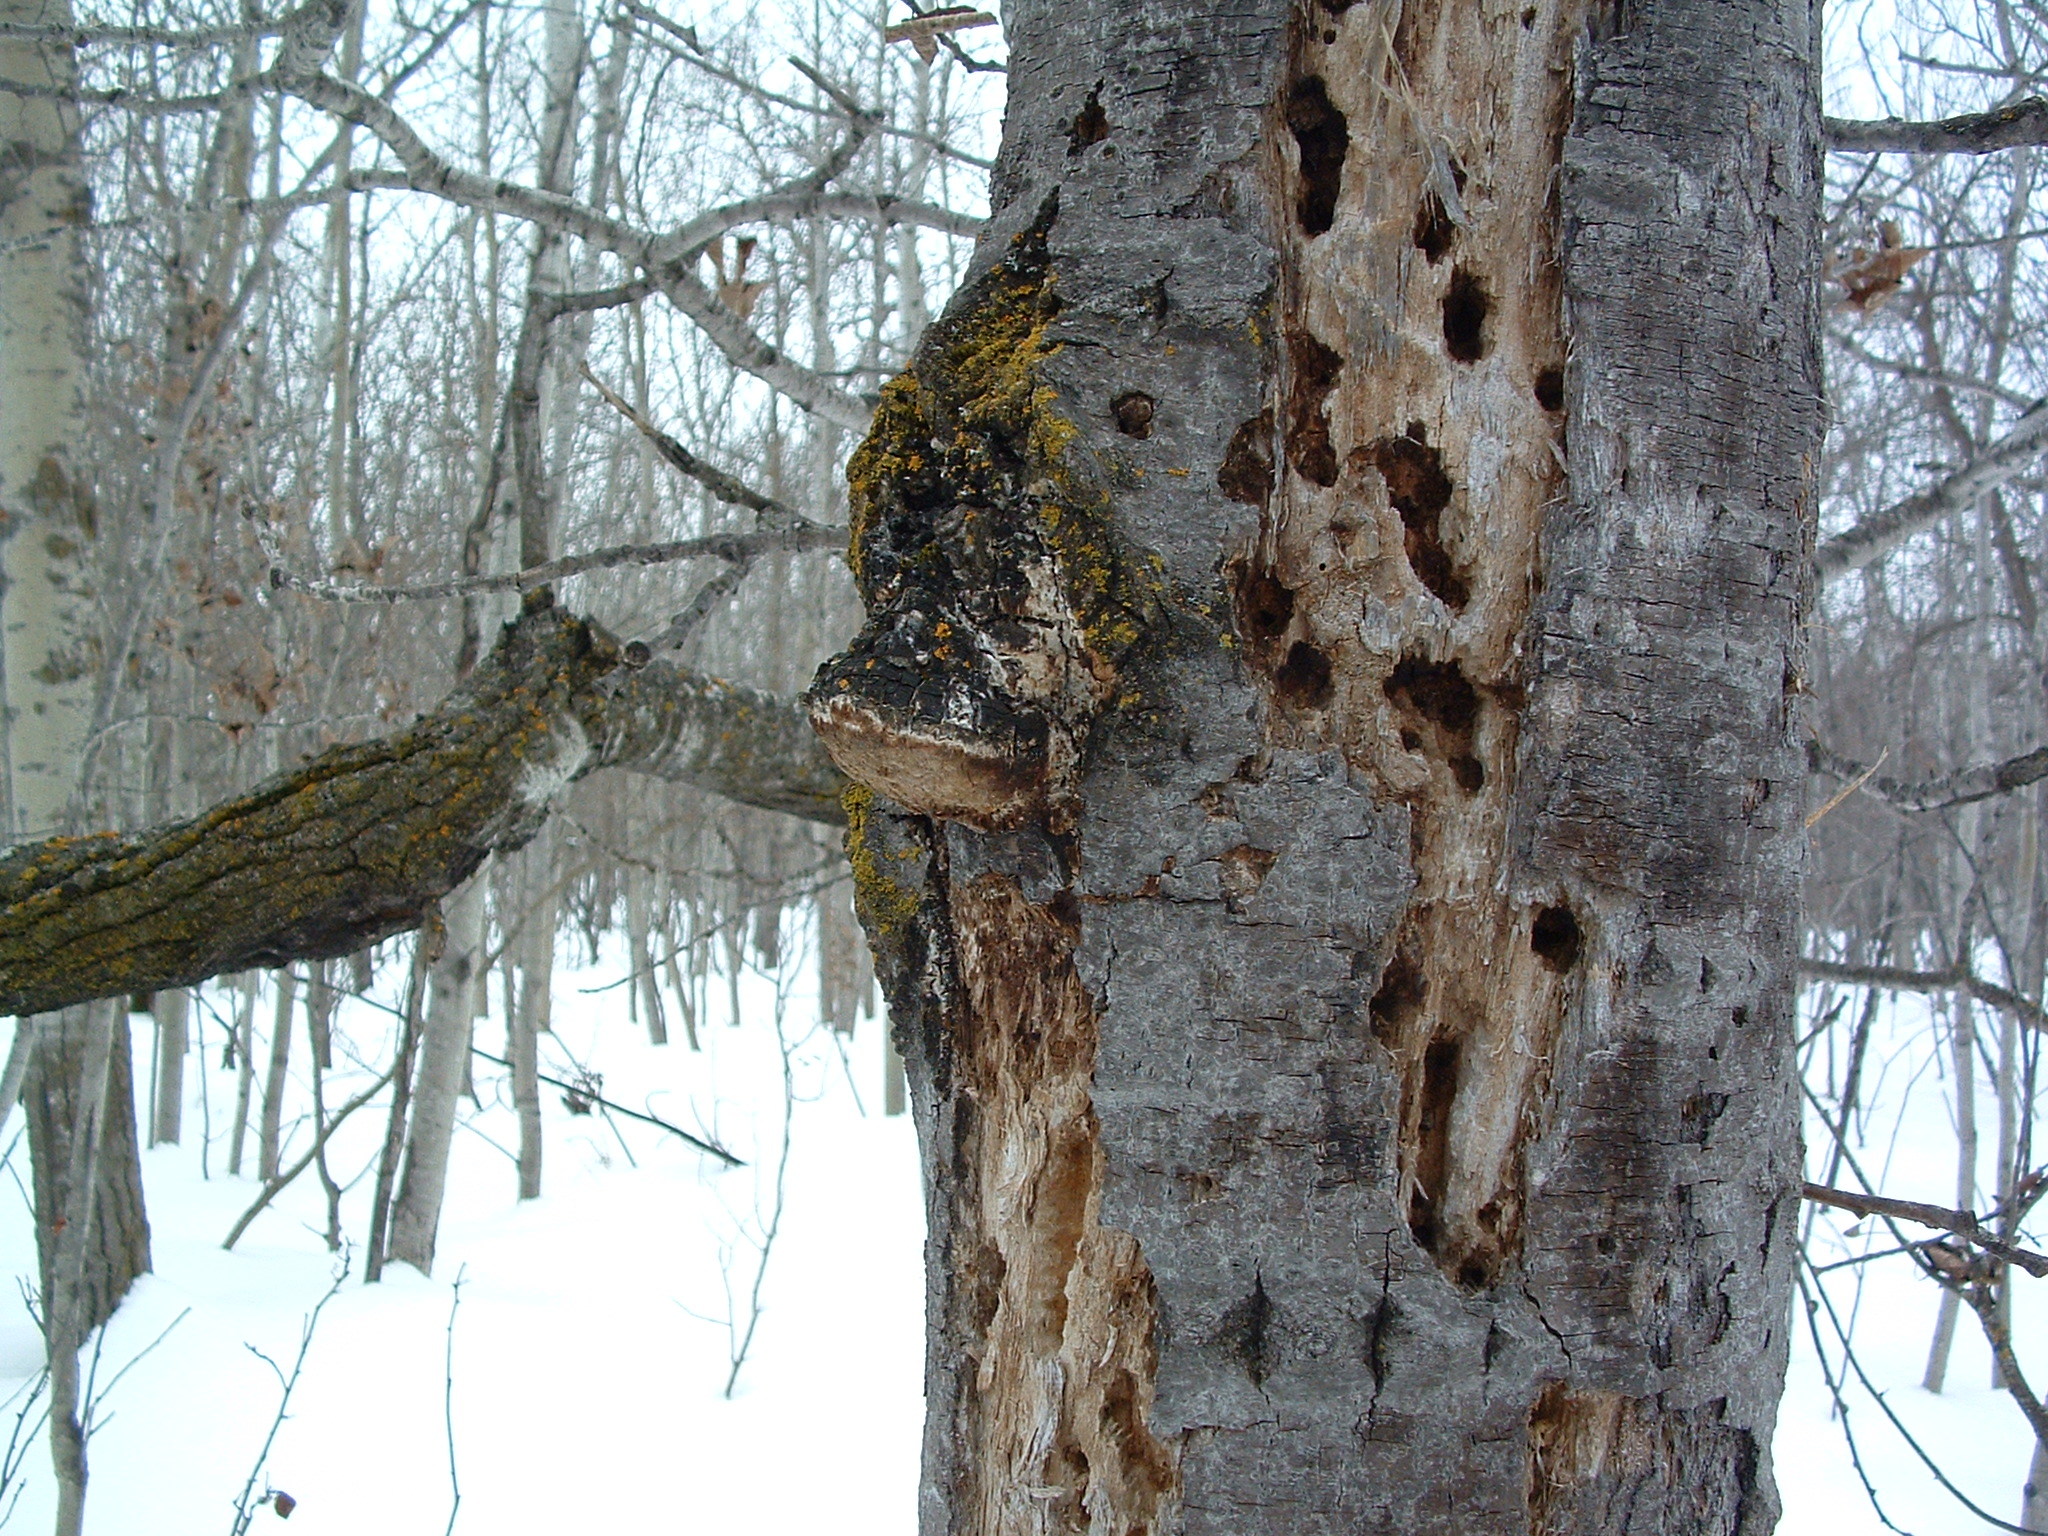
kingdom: Animalia
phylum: Chordata
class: Aves
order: Piciformes
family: Picidae
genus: Dryocopus
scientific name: Dryocopus pileatus
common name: Pileated woodpecker
